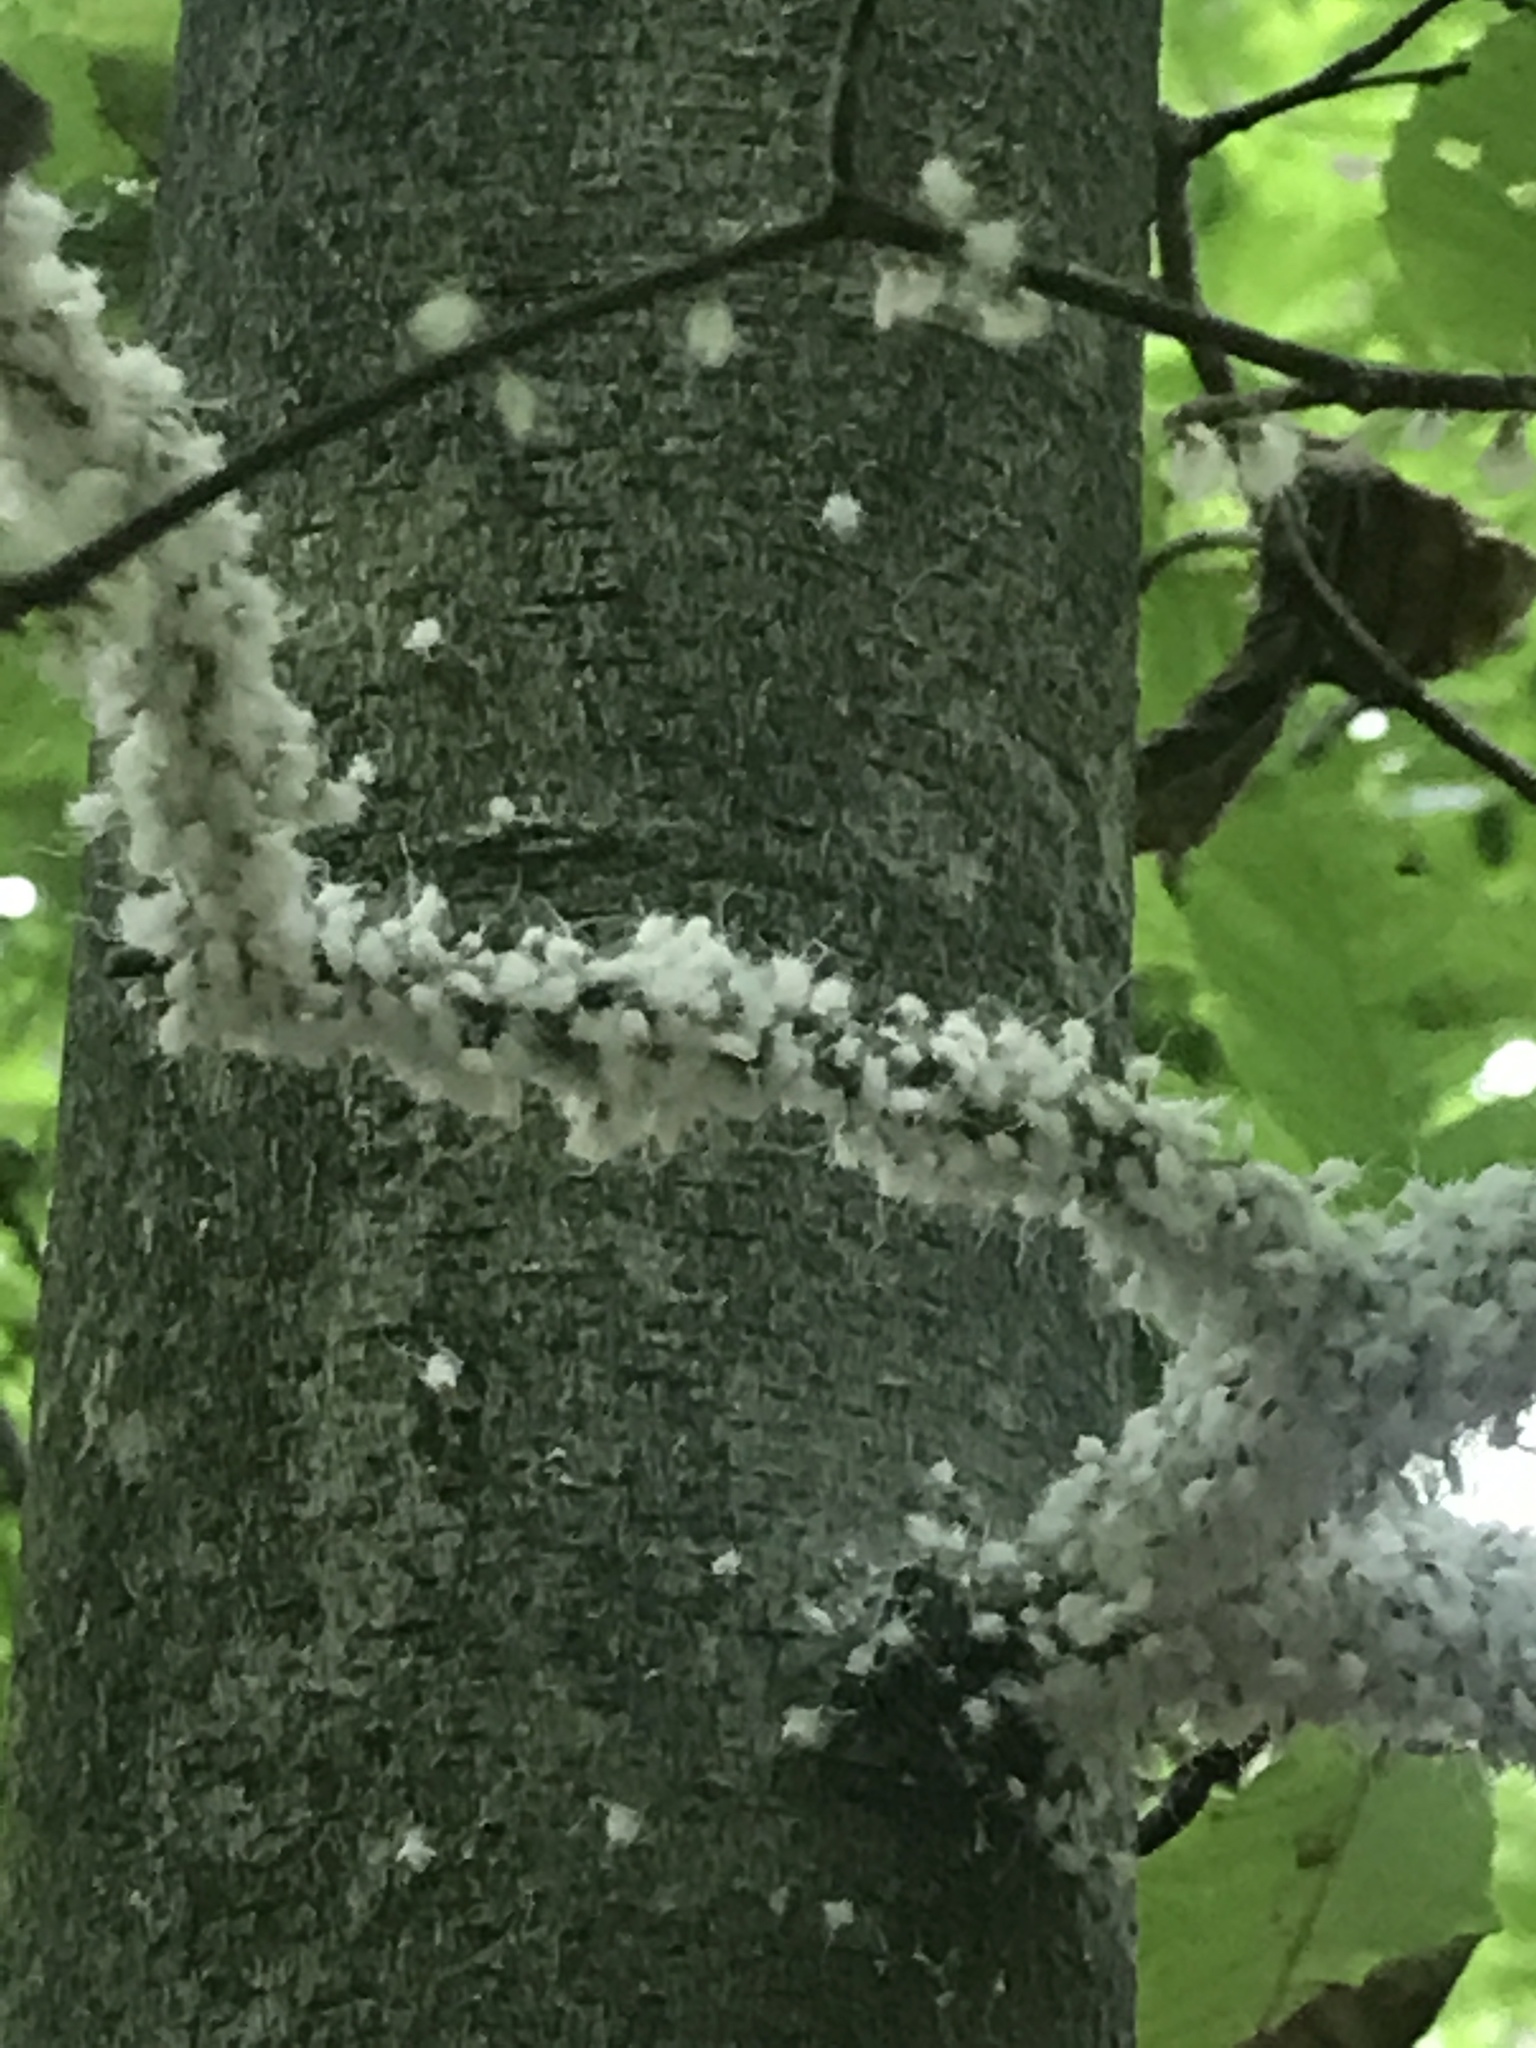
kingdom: Animalia
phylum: Arthropoda
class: Insecta
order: Hemiptera
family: Aphididae
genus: Grylloprociphilus
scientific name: Grylloprociphilus imbricator
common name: Beech blight aphid
